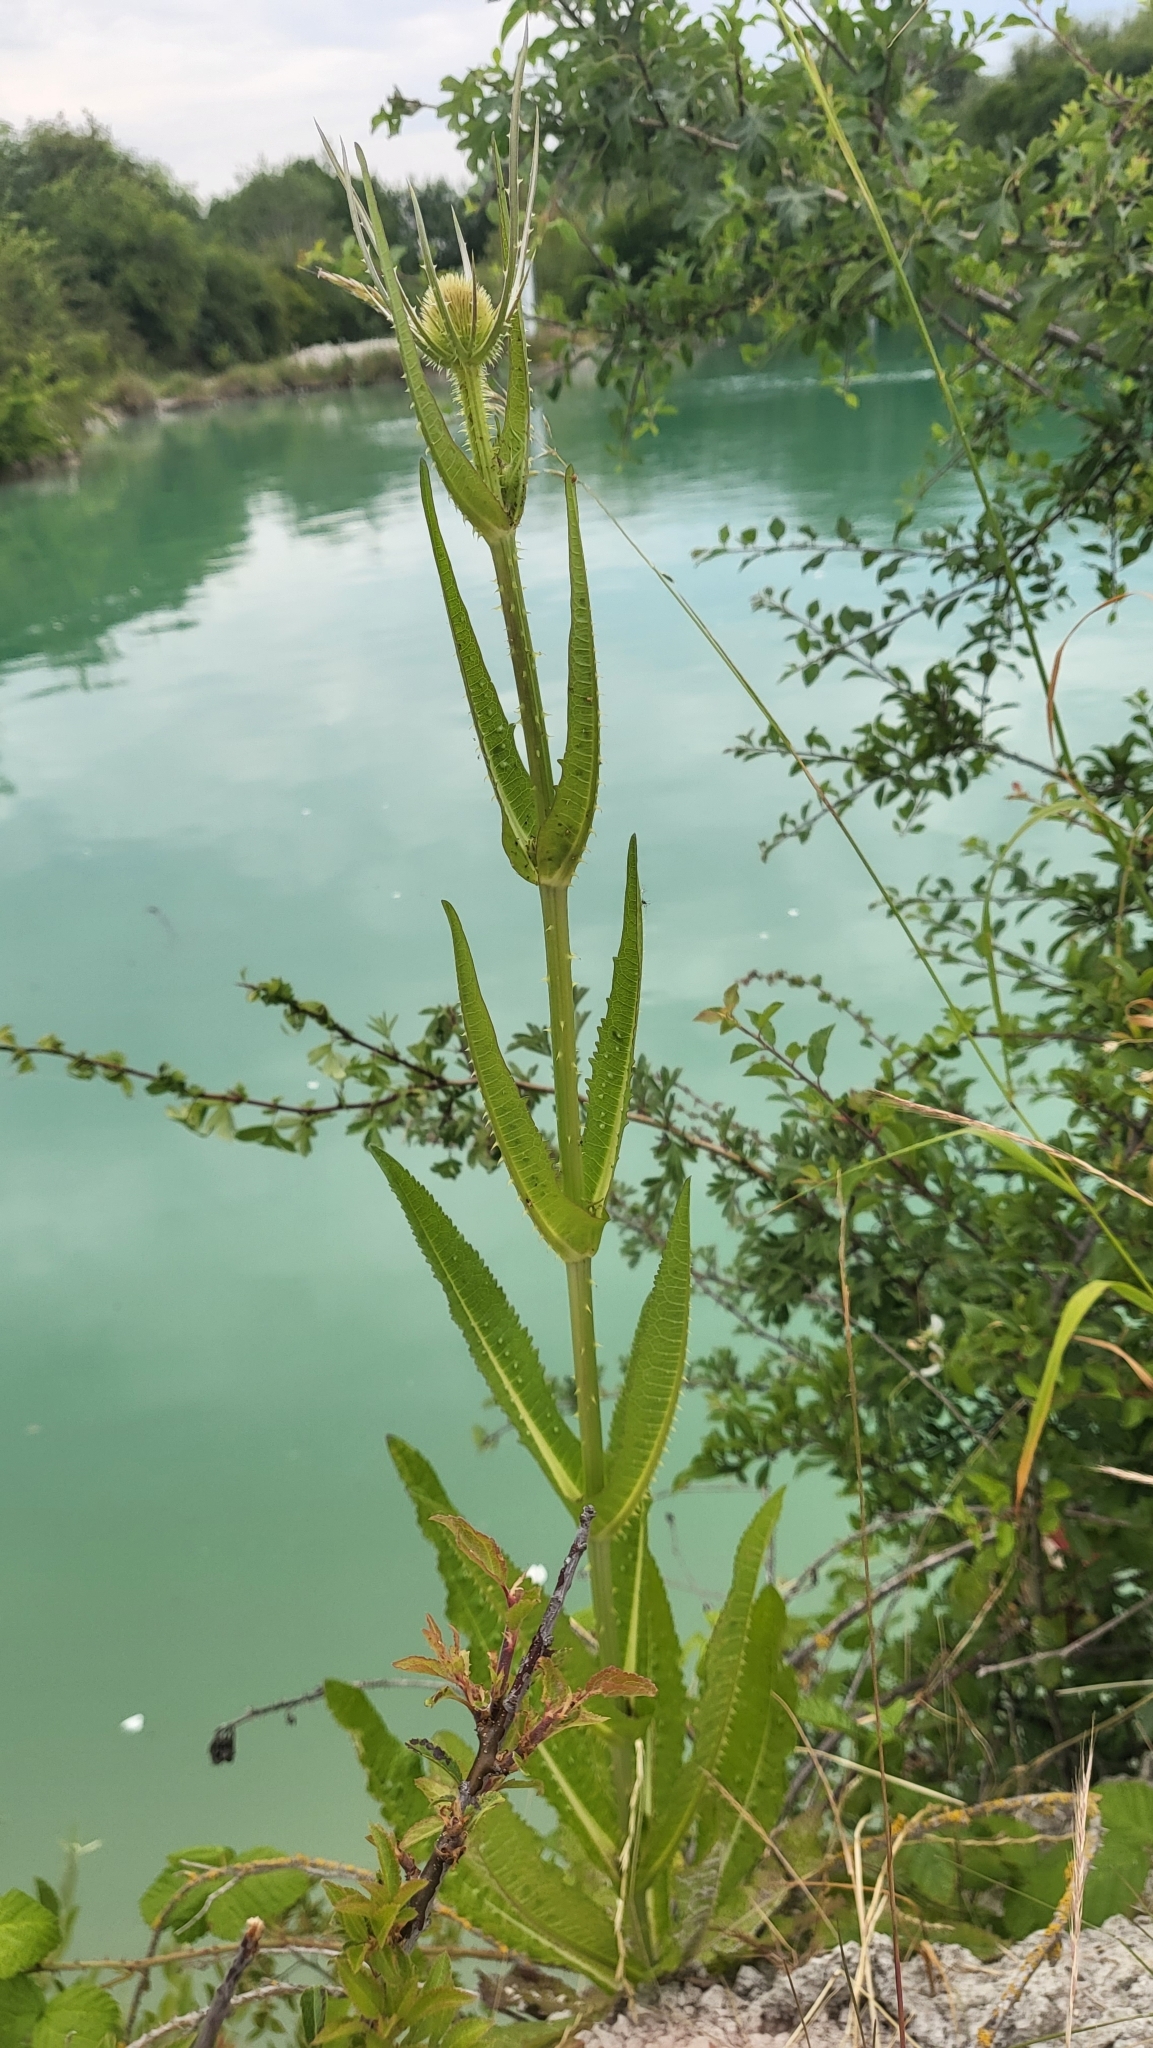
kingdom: Plantae
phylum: Tracheophyta
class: Magnoliopsida
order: Dipsacales
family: Caprifoliaceae
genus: Dipsacus
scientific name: Dipsacus fullonum
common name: Teasel
